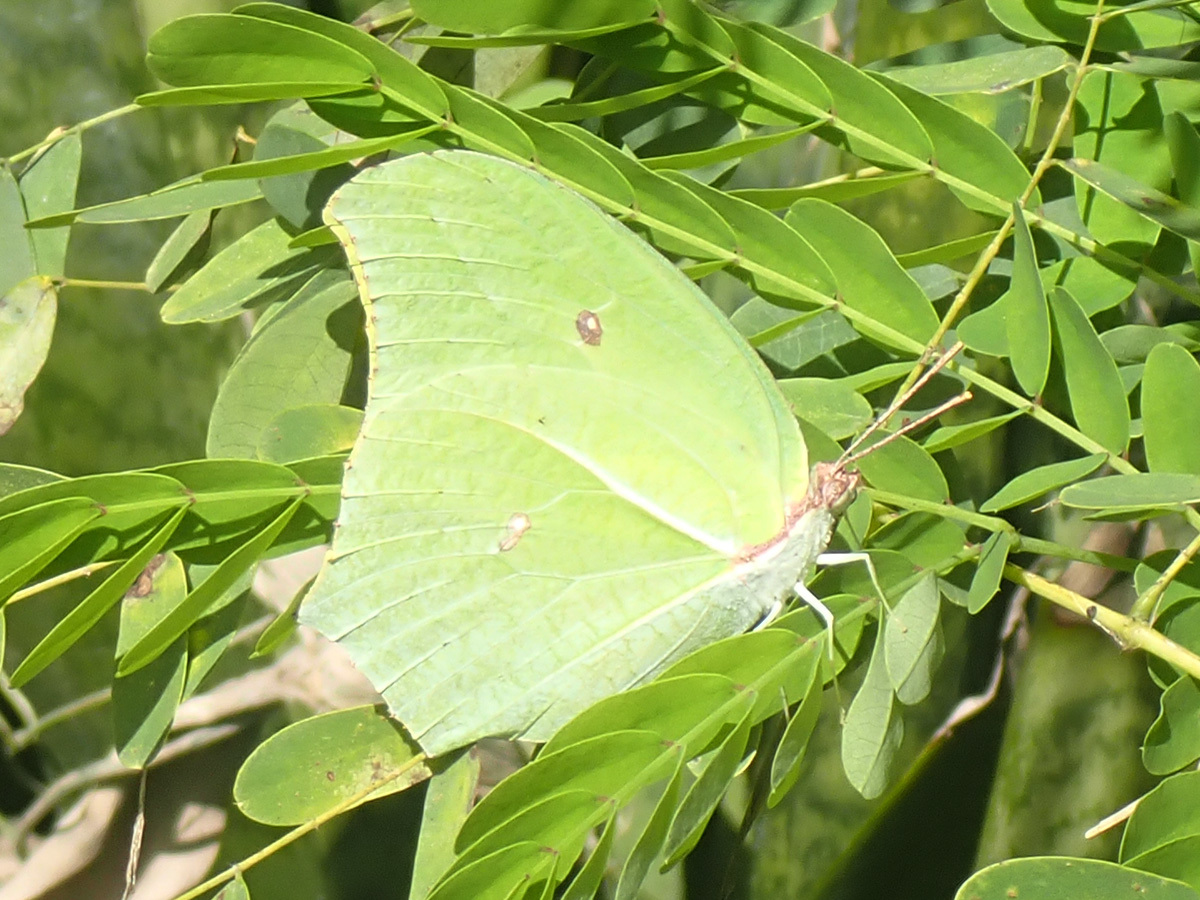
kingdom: Animalia
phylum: Arthropoda
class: Insecta
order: Lepidoptera
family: Pieridae
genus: Anteos
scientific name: Anteos maerula
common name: Angled sulphur
